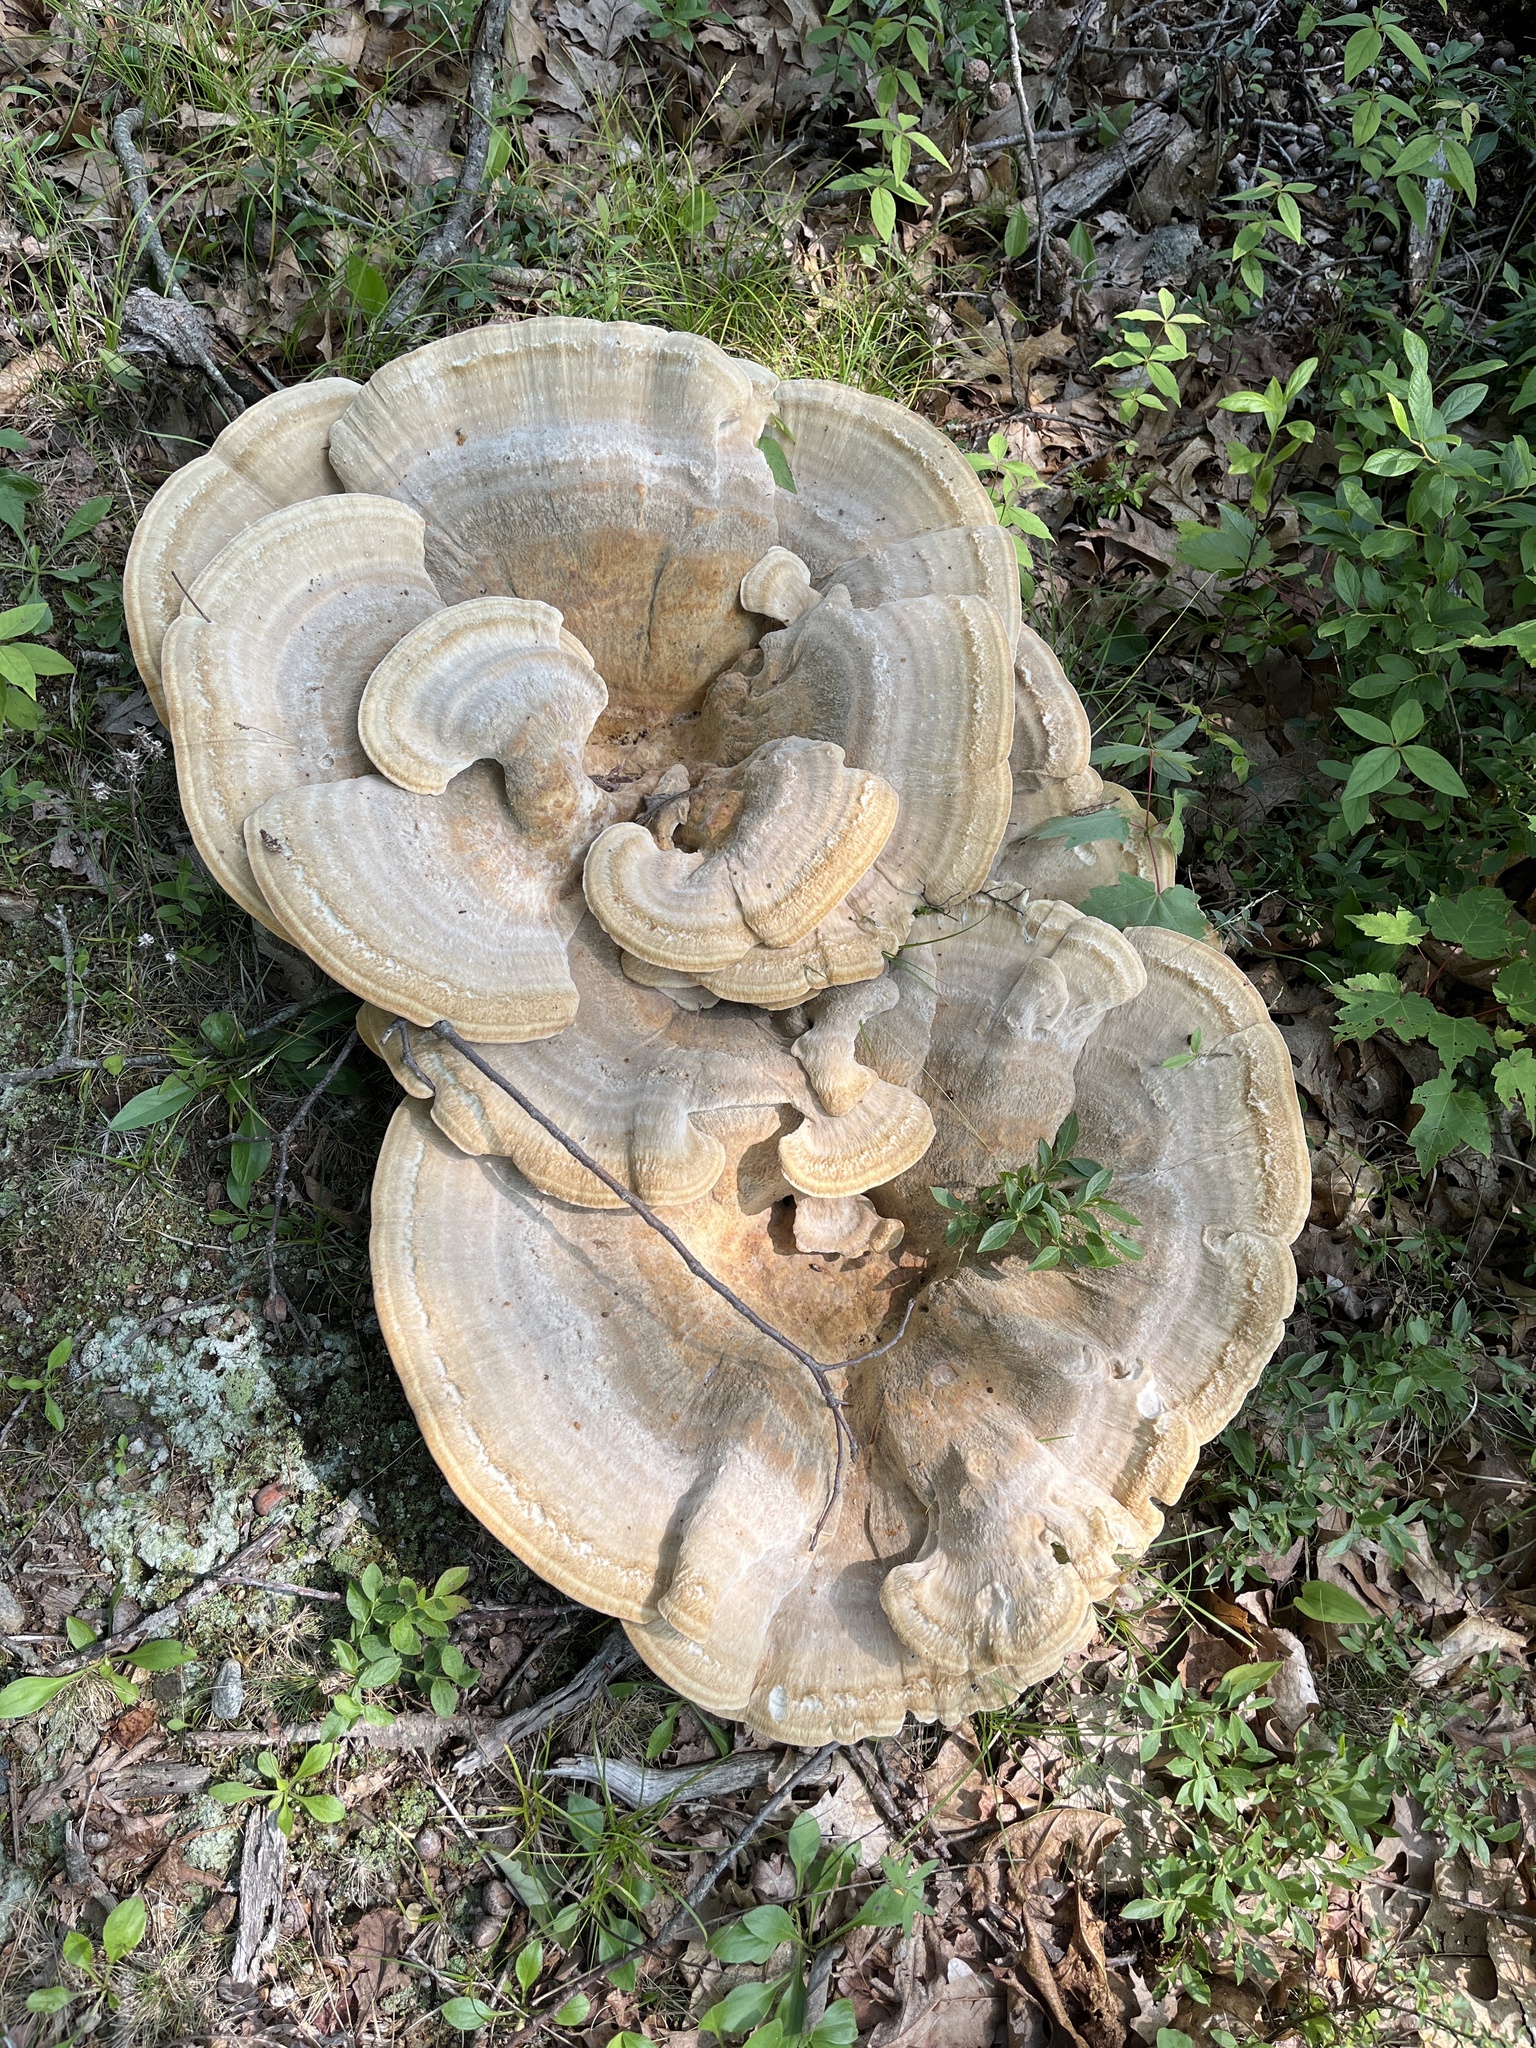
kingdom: Fungi
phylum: Basidiomycota
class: Agaricomycetes
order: Russulales
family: Bondarzewiaceae
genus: Bondarzewia
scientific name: Bondarzewia berkeleyi
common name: Berkeley's polypore
